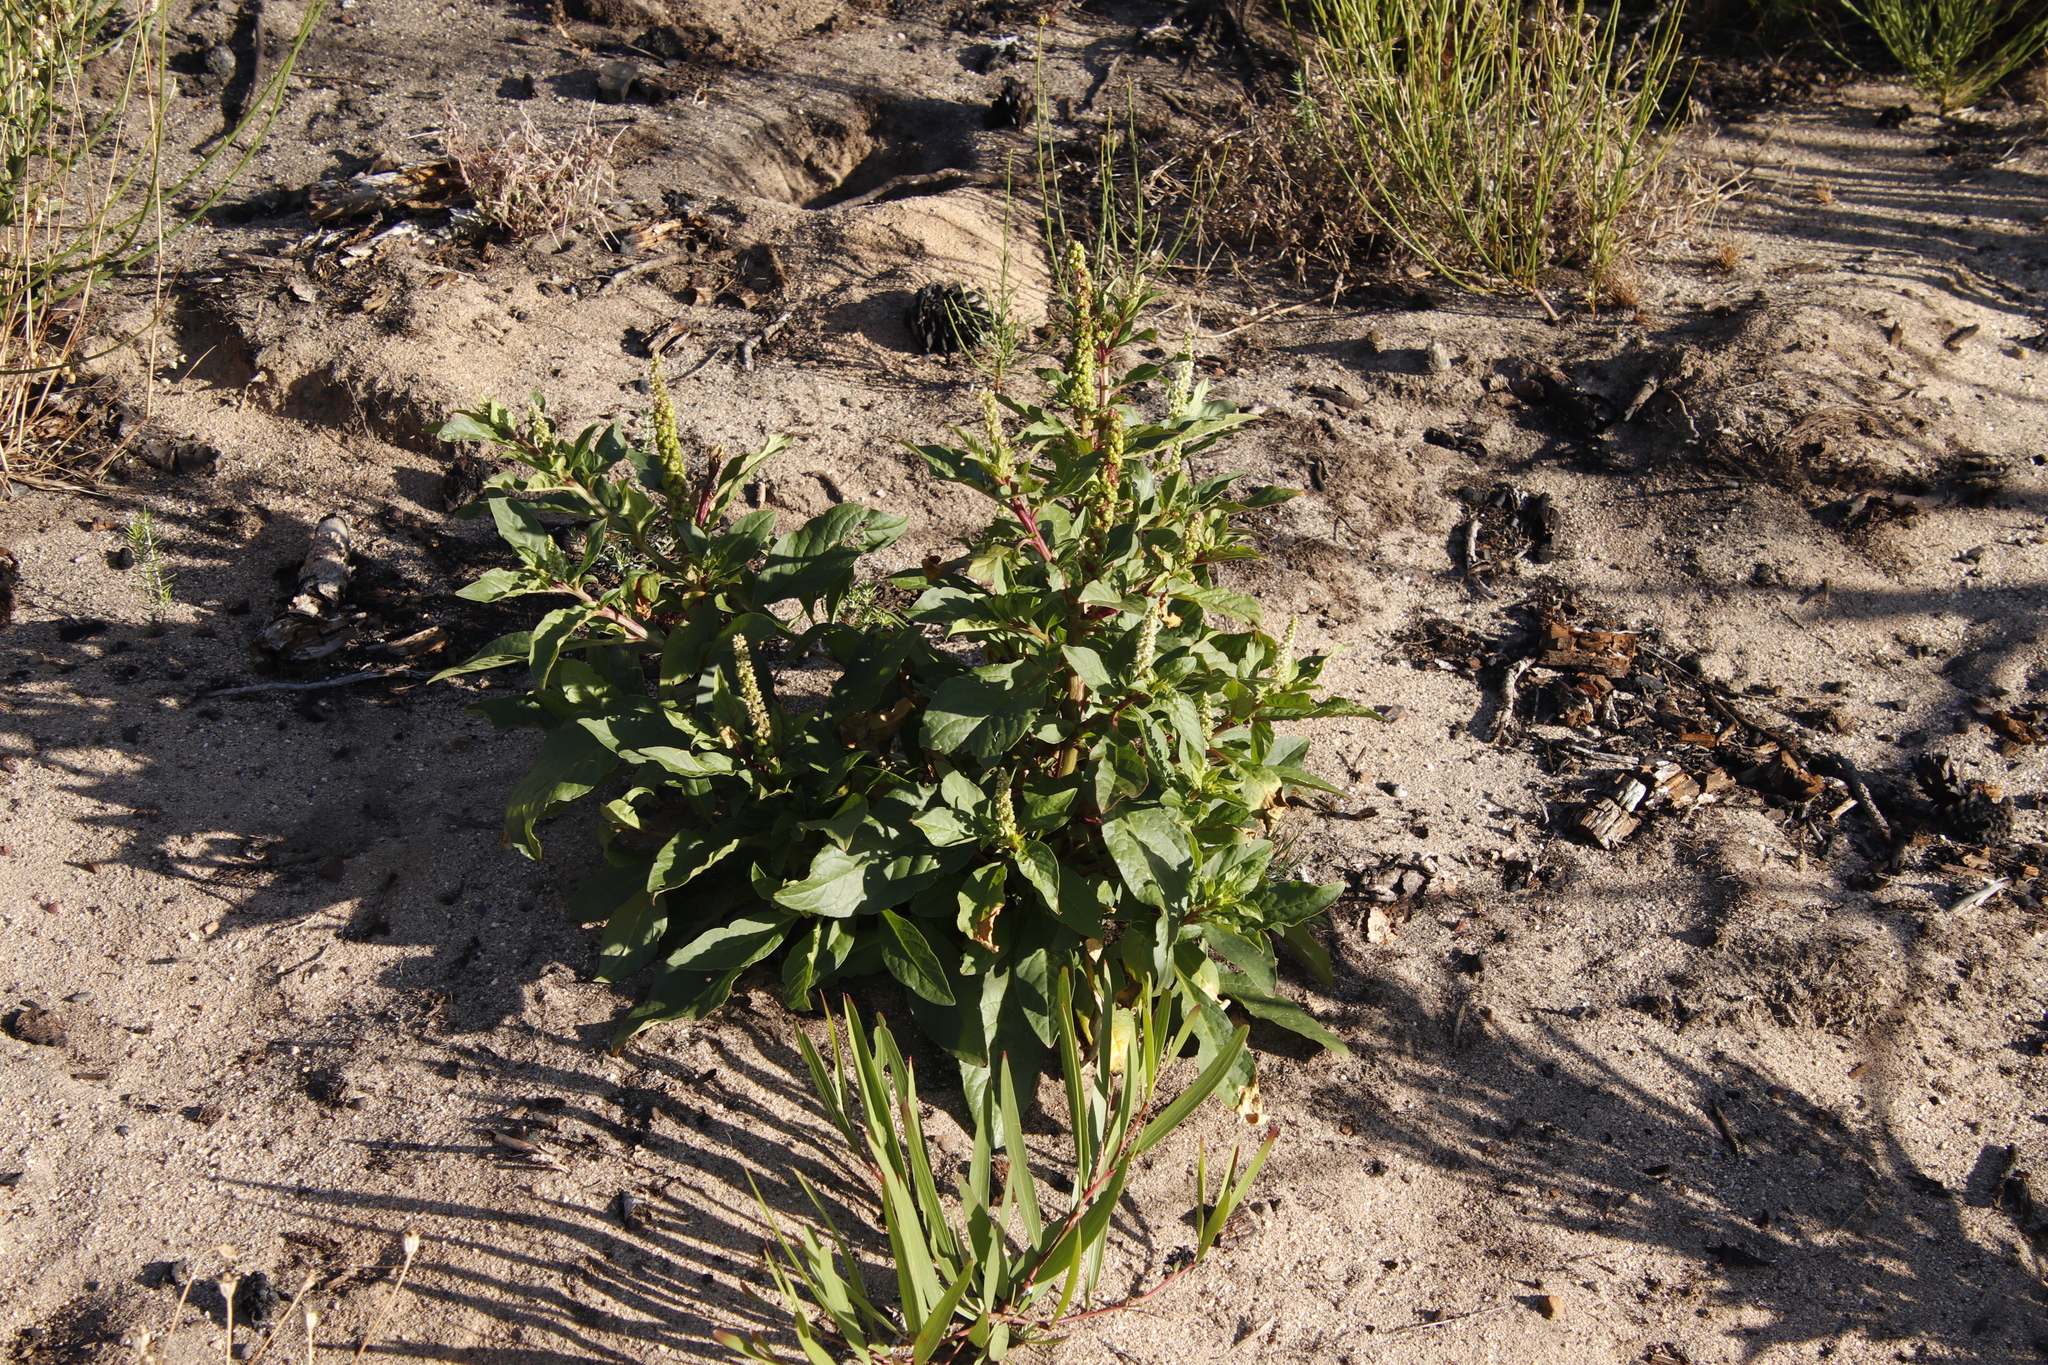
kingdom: Plantae
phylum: Tracheophyta
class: Magnoliopsida
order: Caryophyllales
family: Phytolaccaceae
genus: Phytolacca
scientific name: Phytolacca icosandra
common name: Button pokeweed
